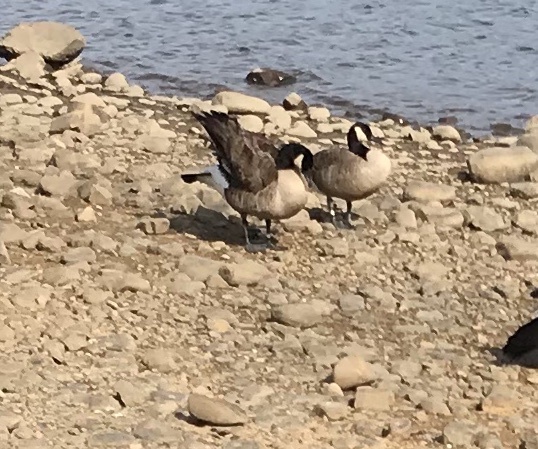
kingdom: Animalia
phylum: Chordata
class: Aves
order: Anseriformes
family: Anatidae
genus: Branta
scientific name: Branta canadensis
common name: Canada goose
